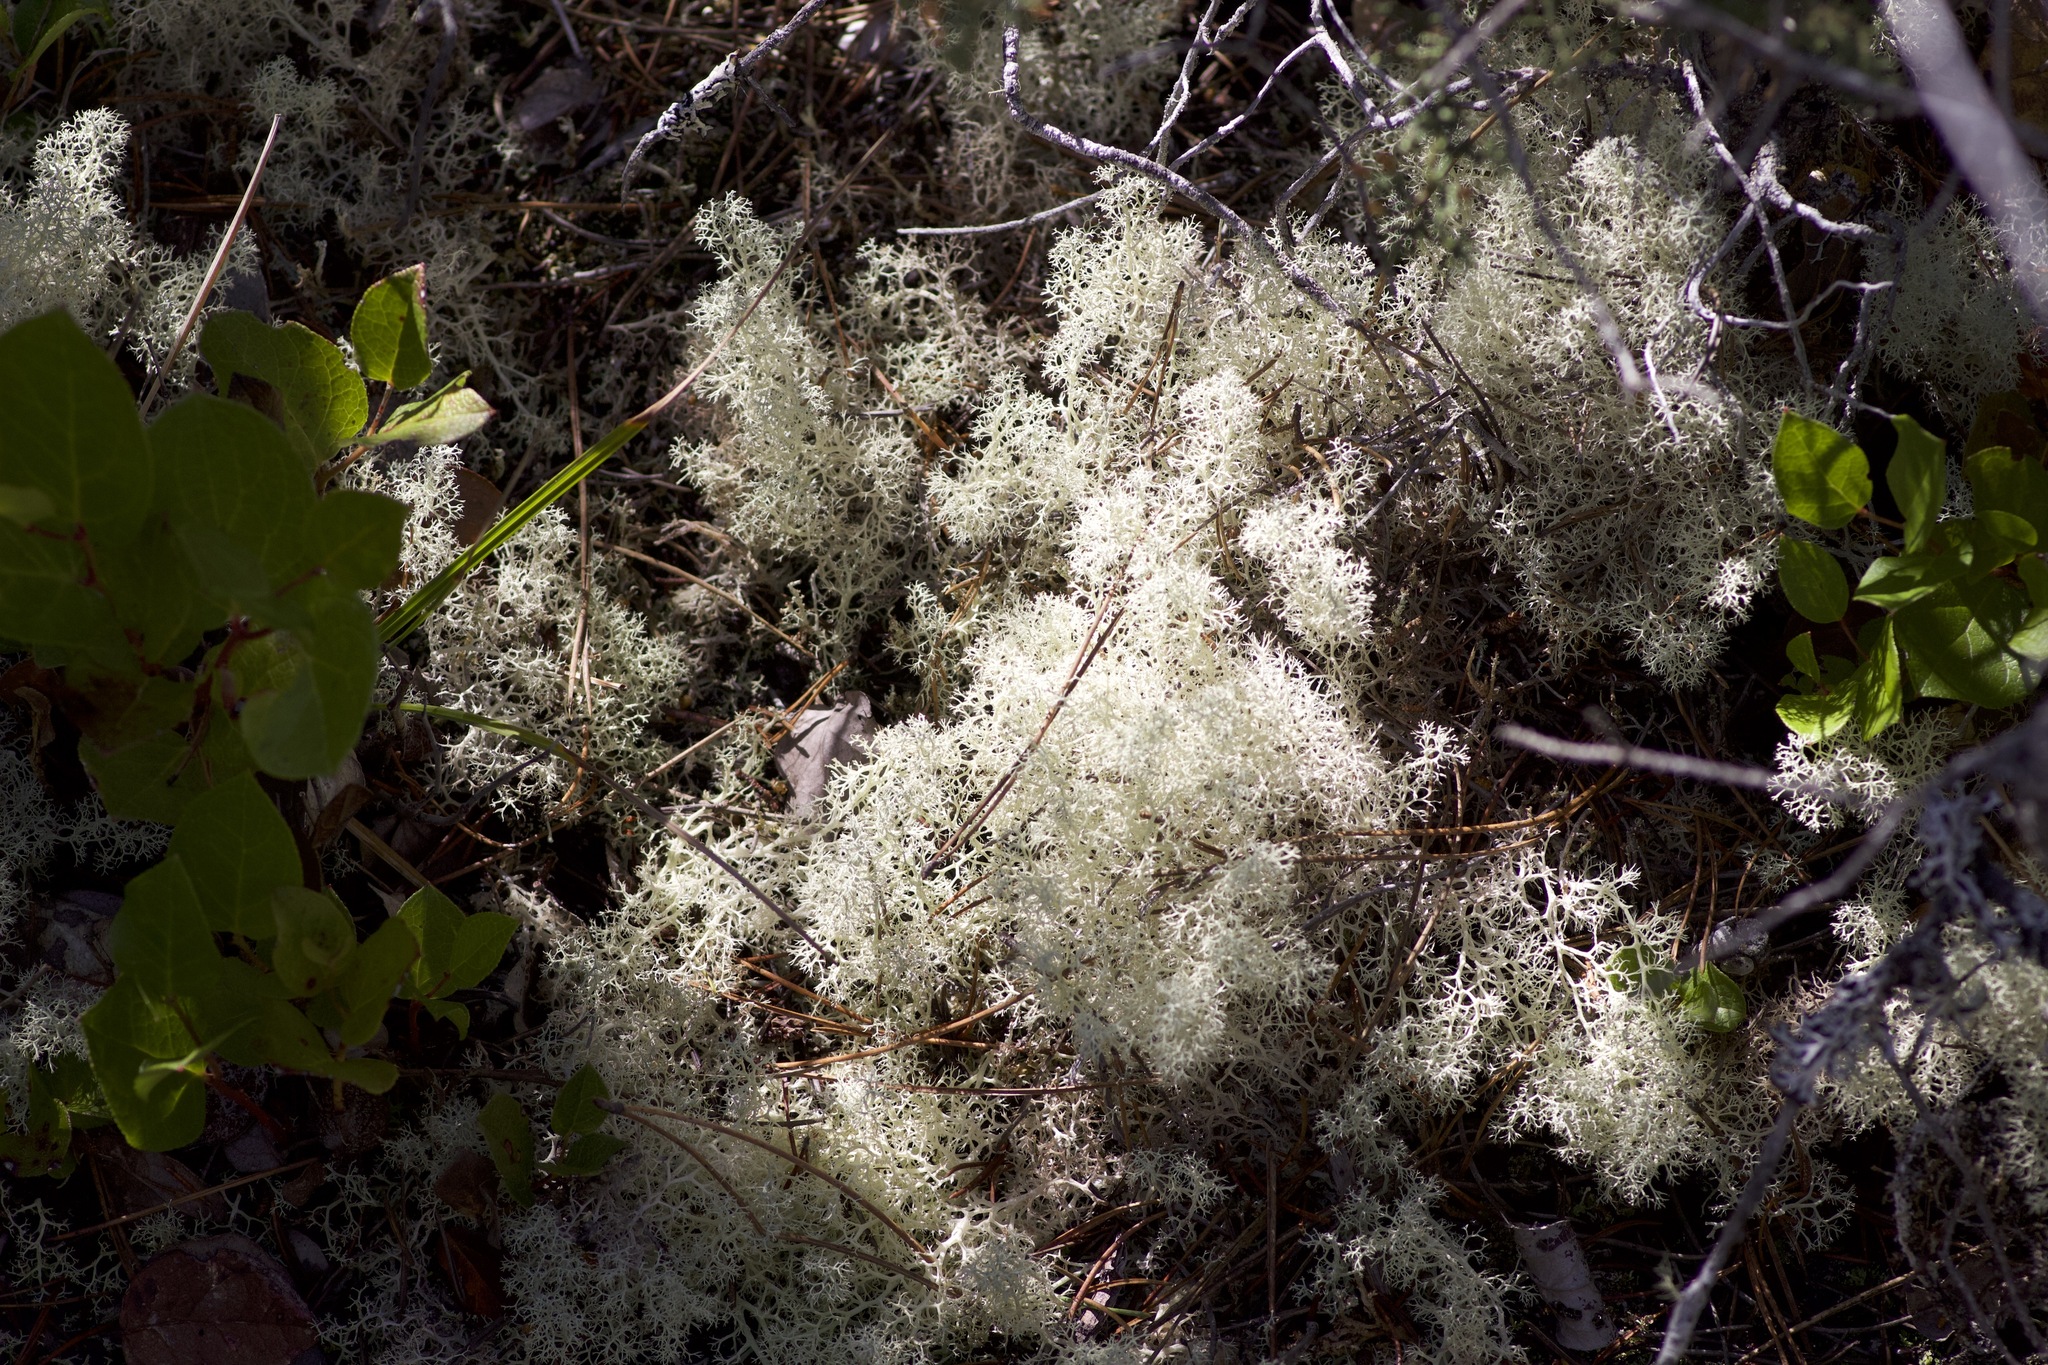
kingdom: Fungi
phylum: Ascomycota
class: Lecanoromycetes
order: Lecanorales
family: Cladoniaceae
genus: Cladonia
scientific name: Cladonia portentosa
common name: Reindeer lichen
